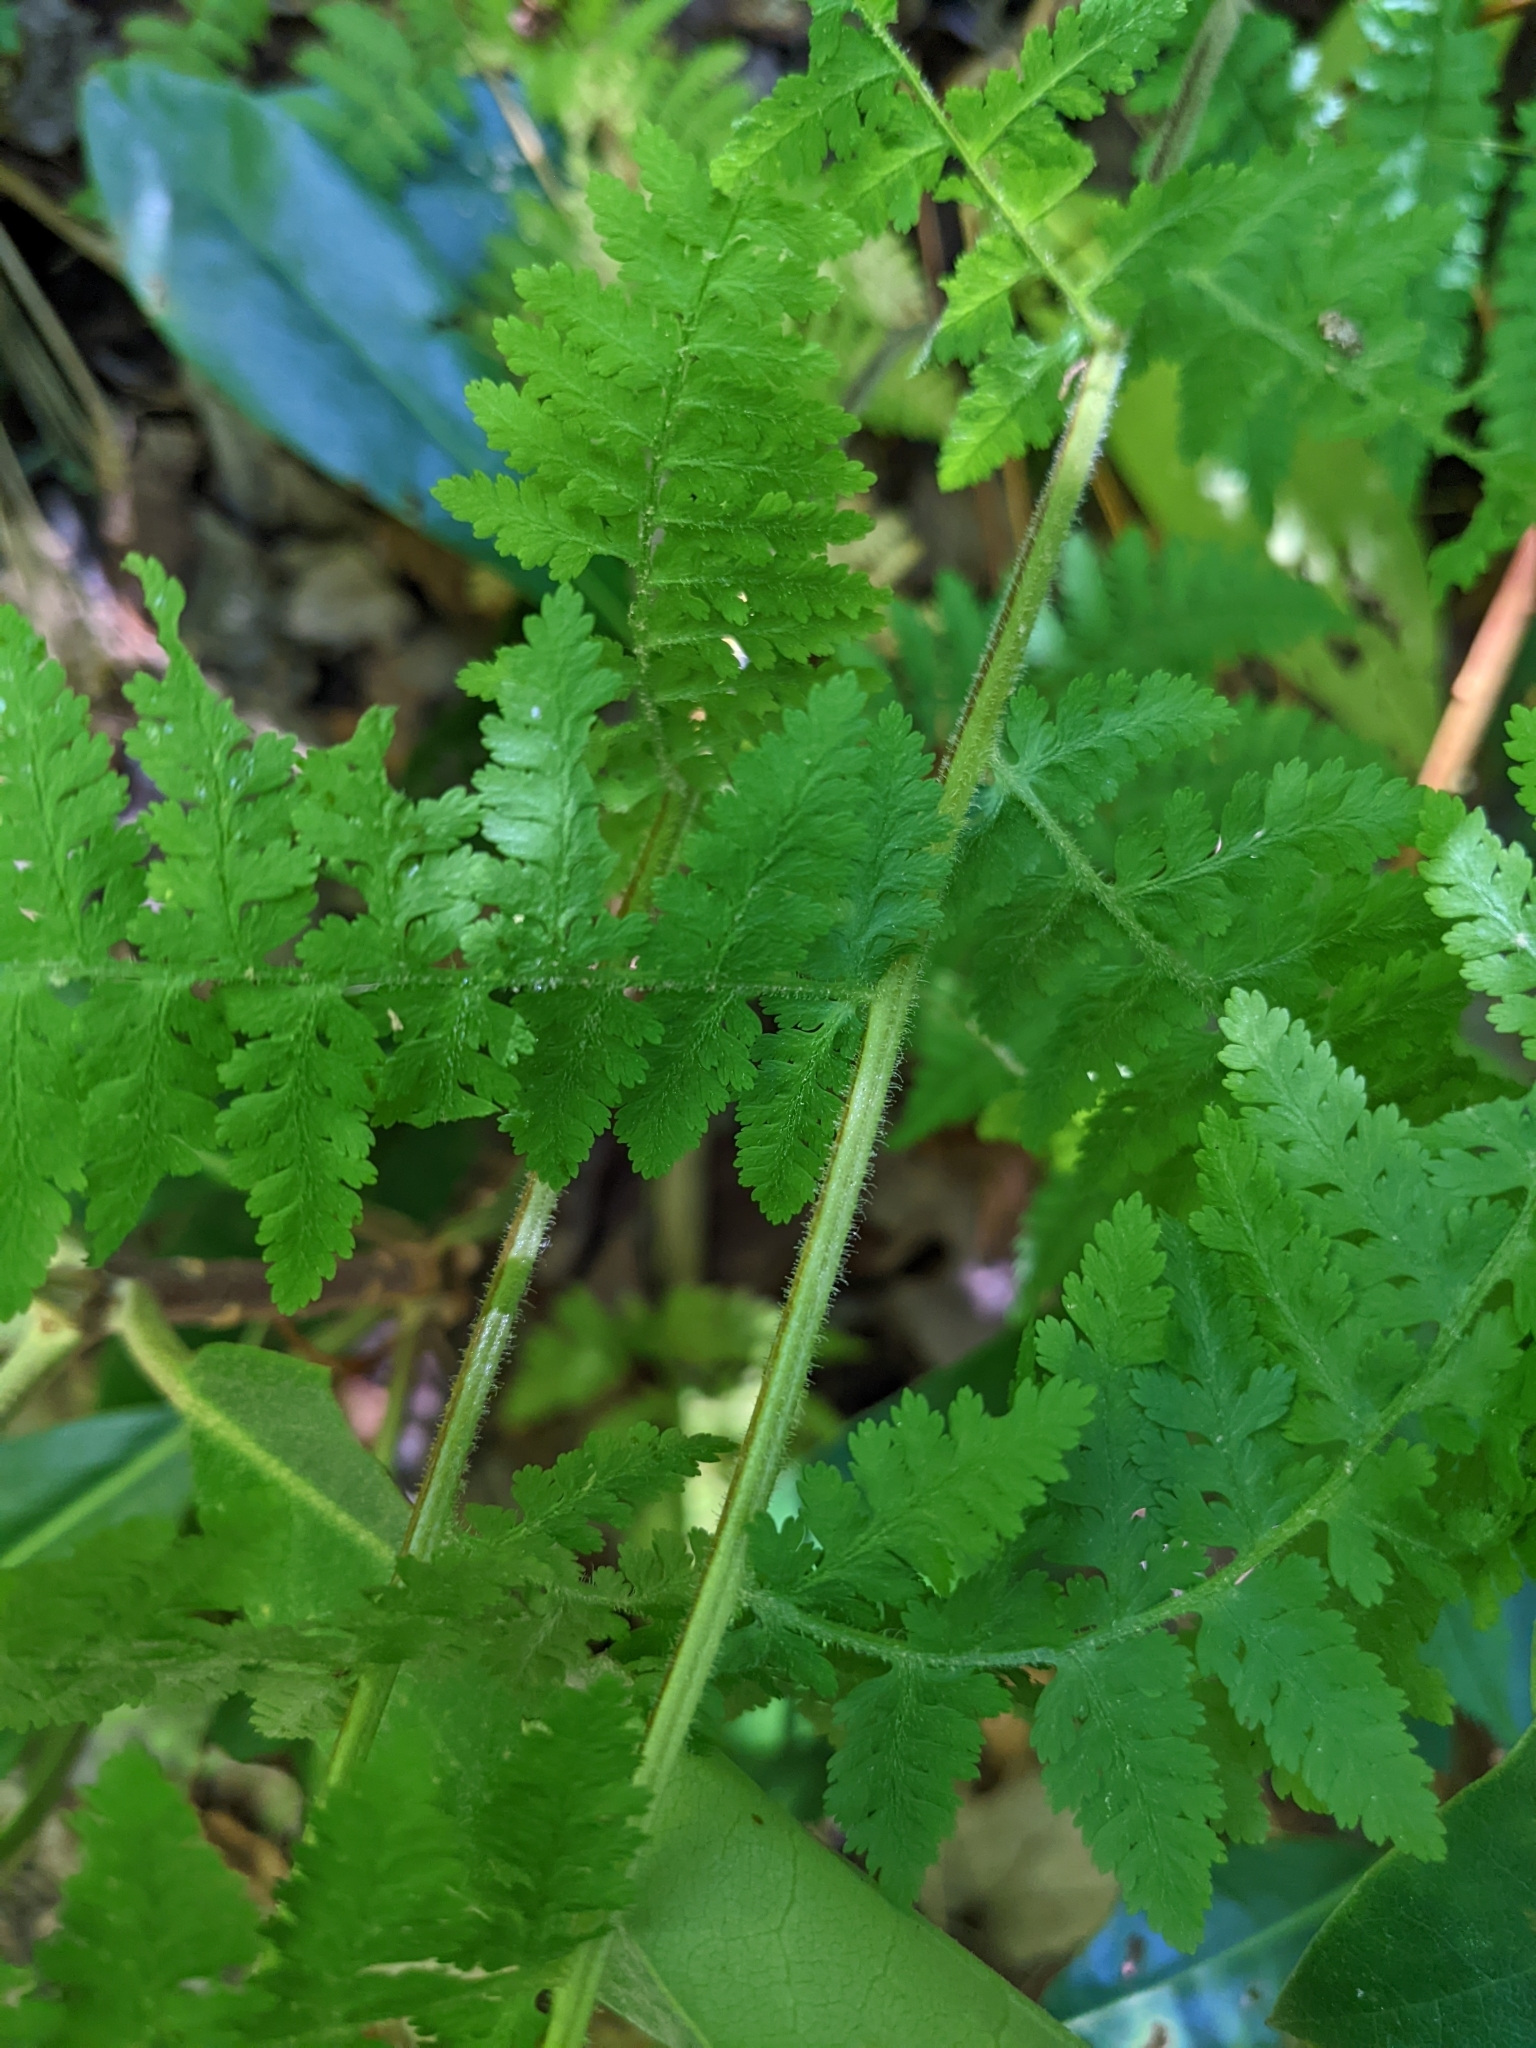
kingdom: Plantae
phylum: Tracheophyta
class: Polypodiopsida
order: Polypodiales
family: Dennstaedtiaceae
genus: Sitobolium
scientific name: Sitobolium punctilobum
